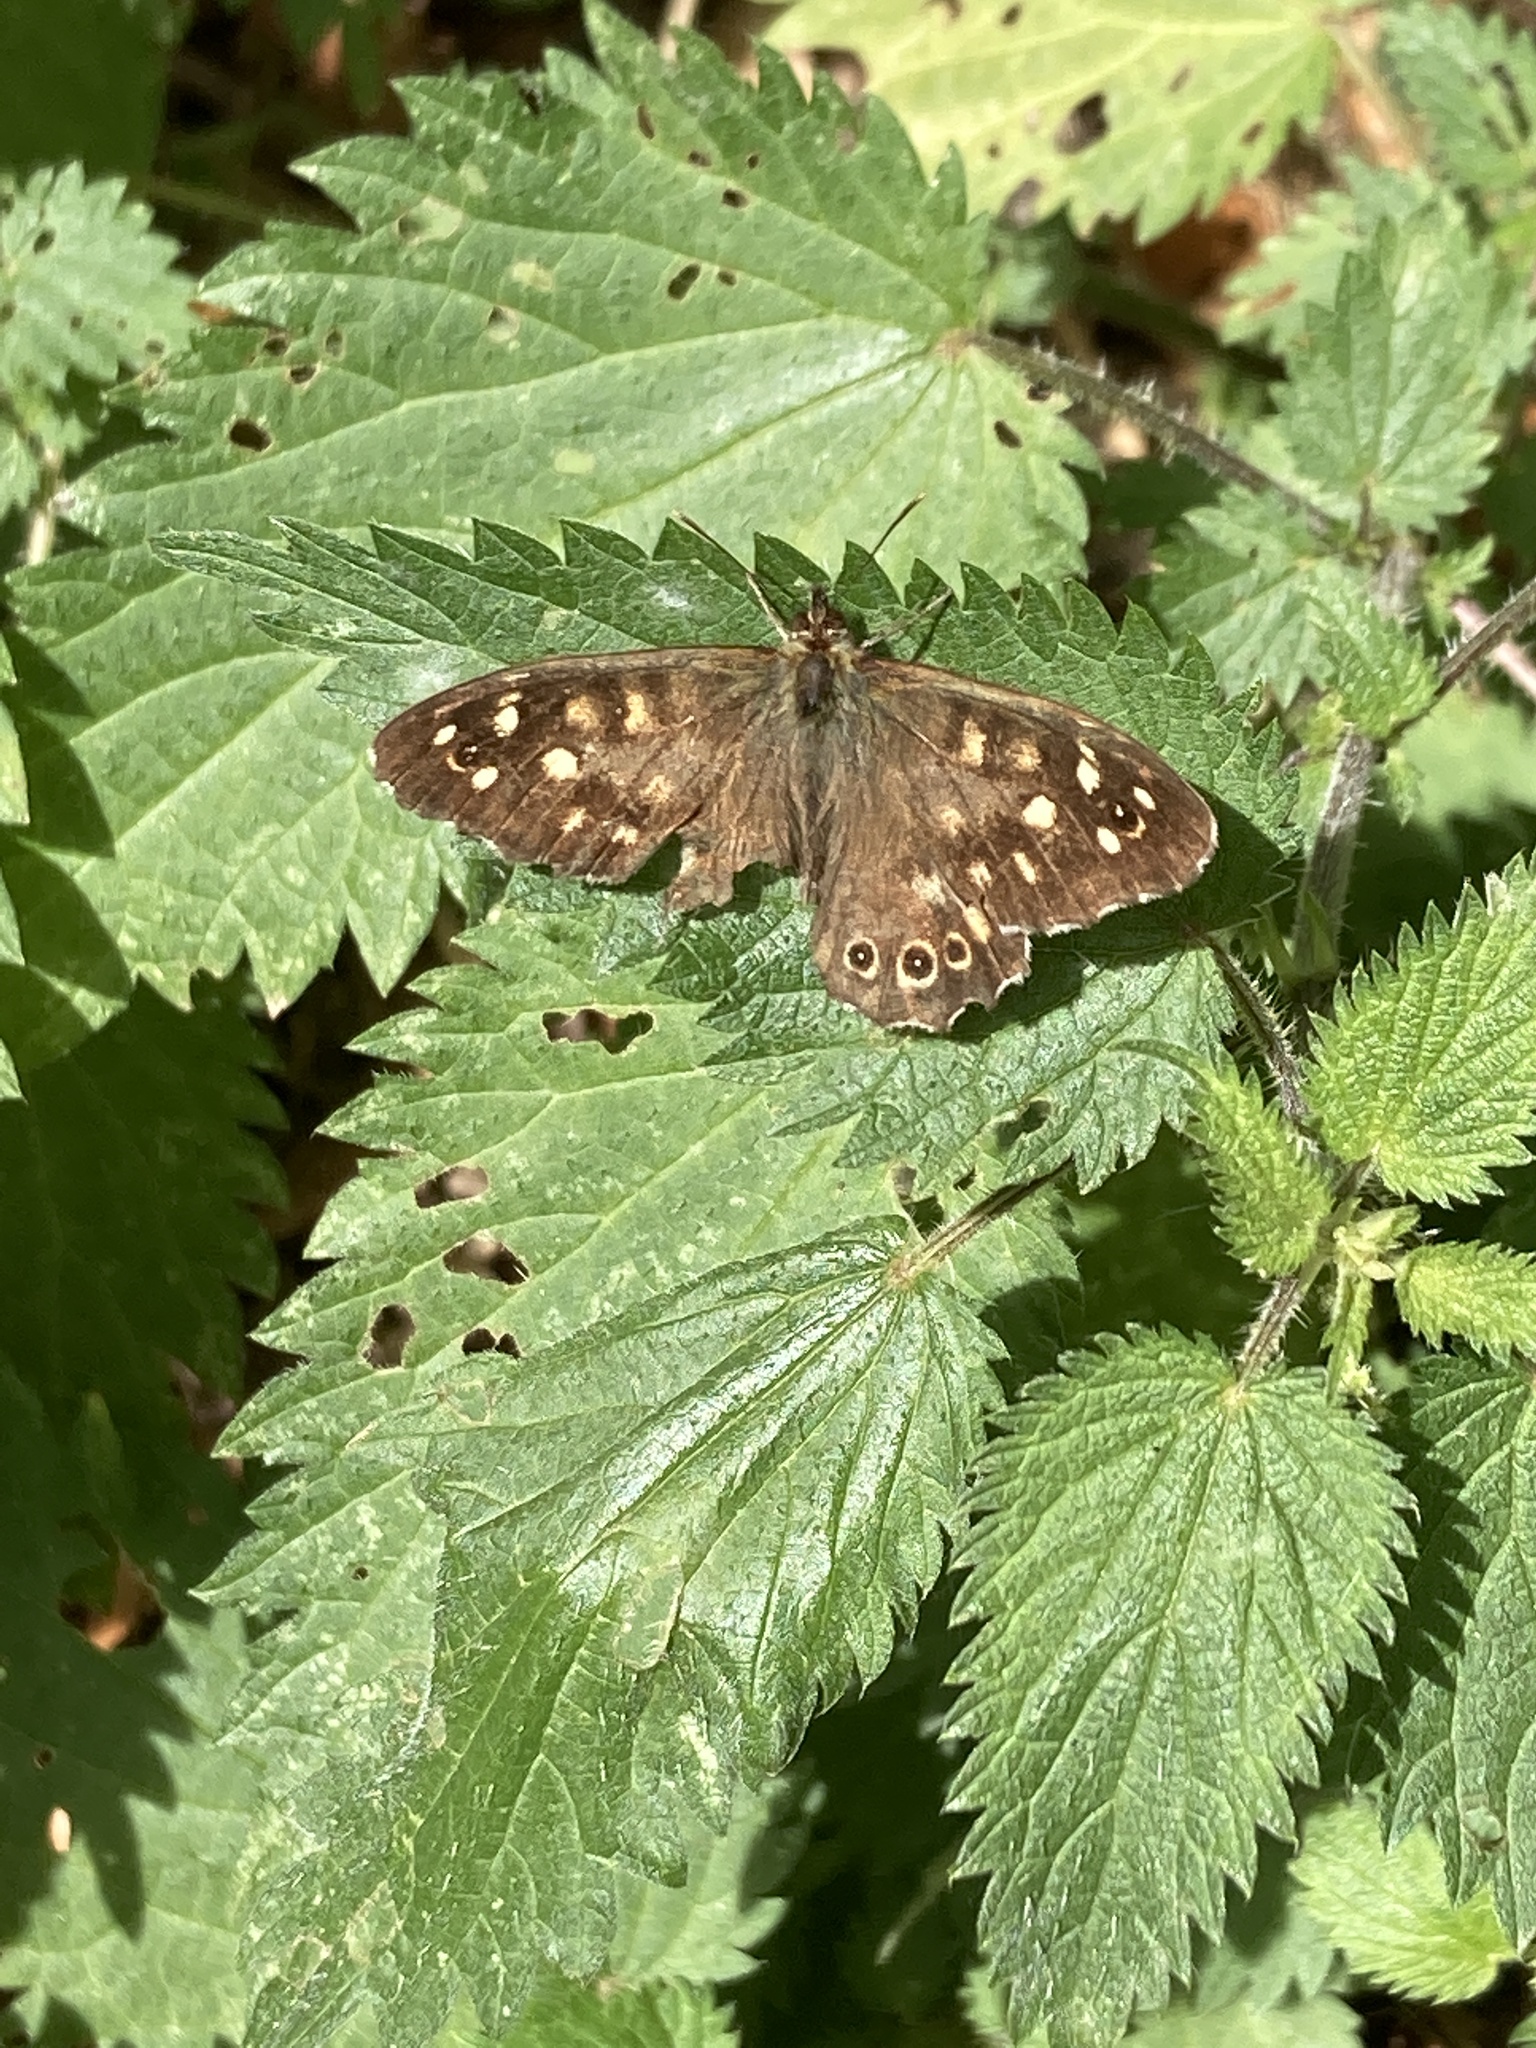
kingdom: Animalia
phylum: Arthropoda
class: Insecta
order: Lepidoptera
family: Nymphalidae
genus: Pararge
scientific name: Pararge aegeria
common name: Speckled wood
